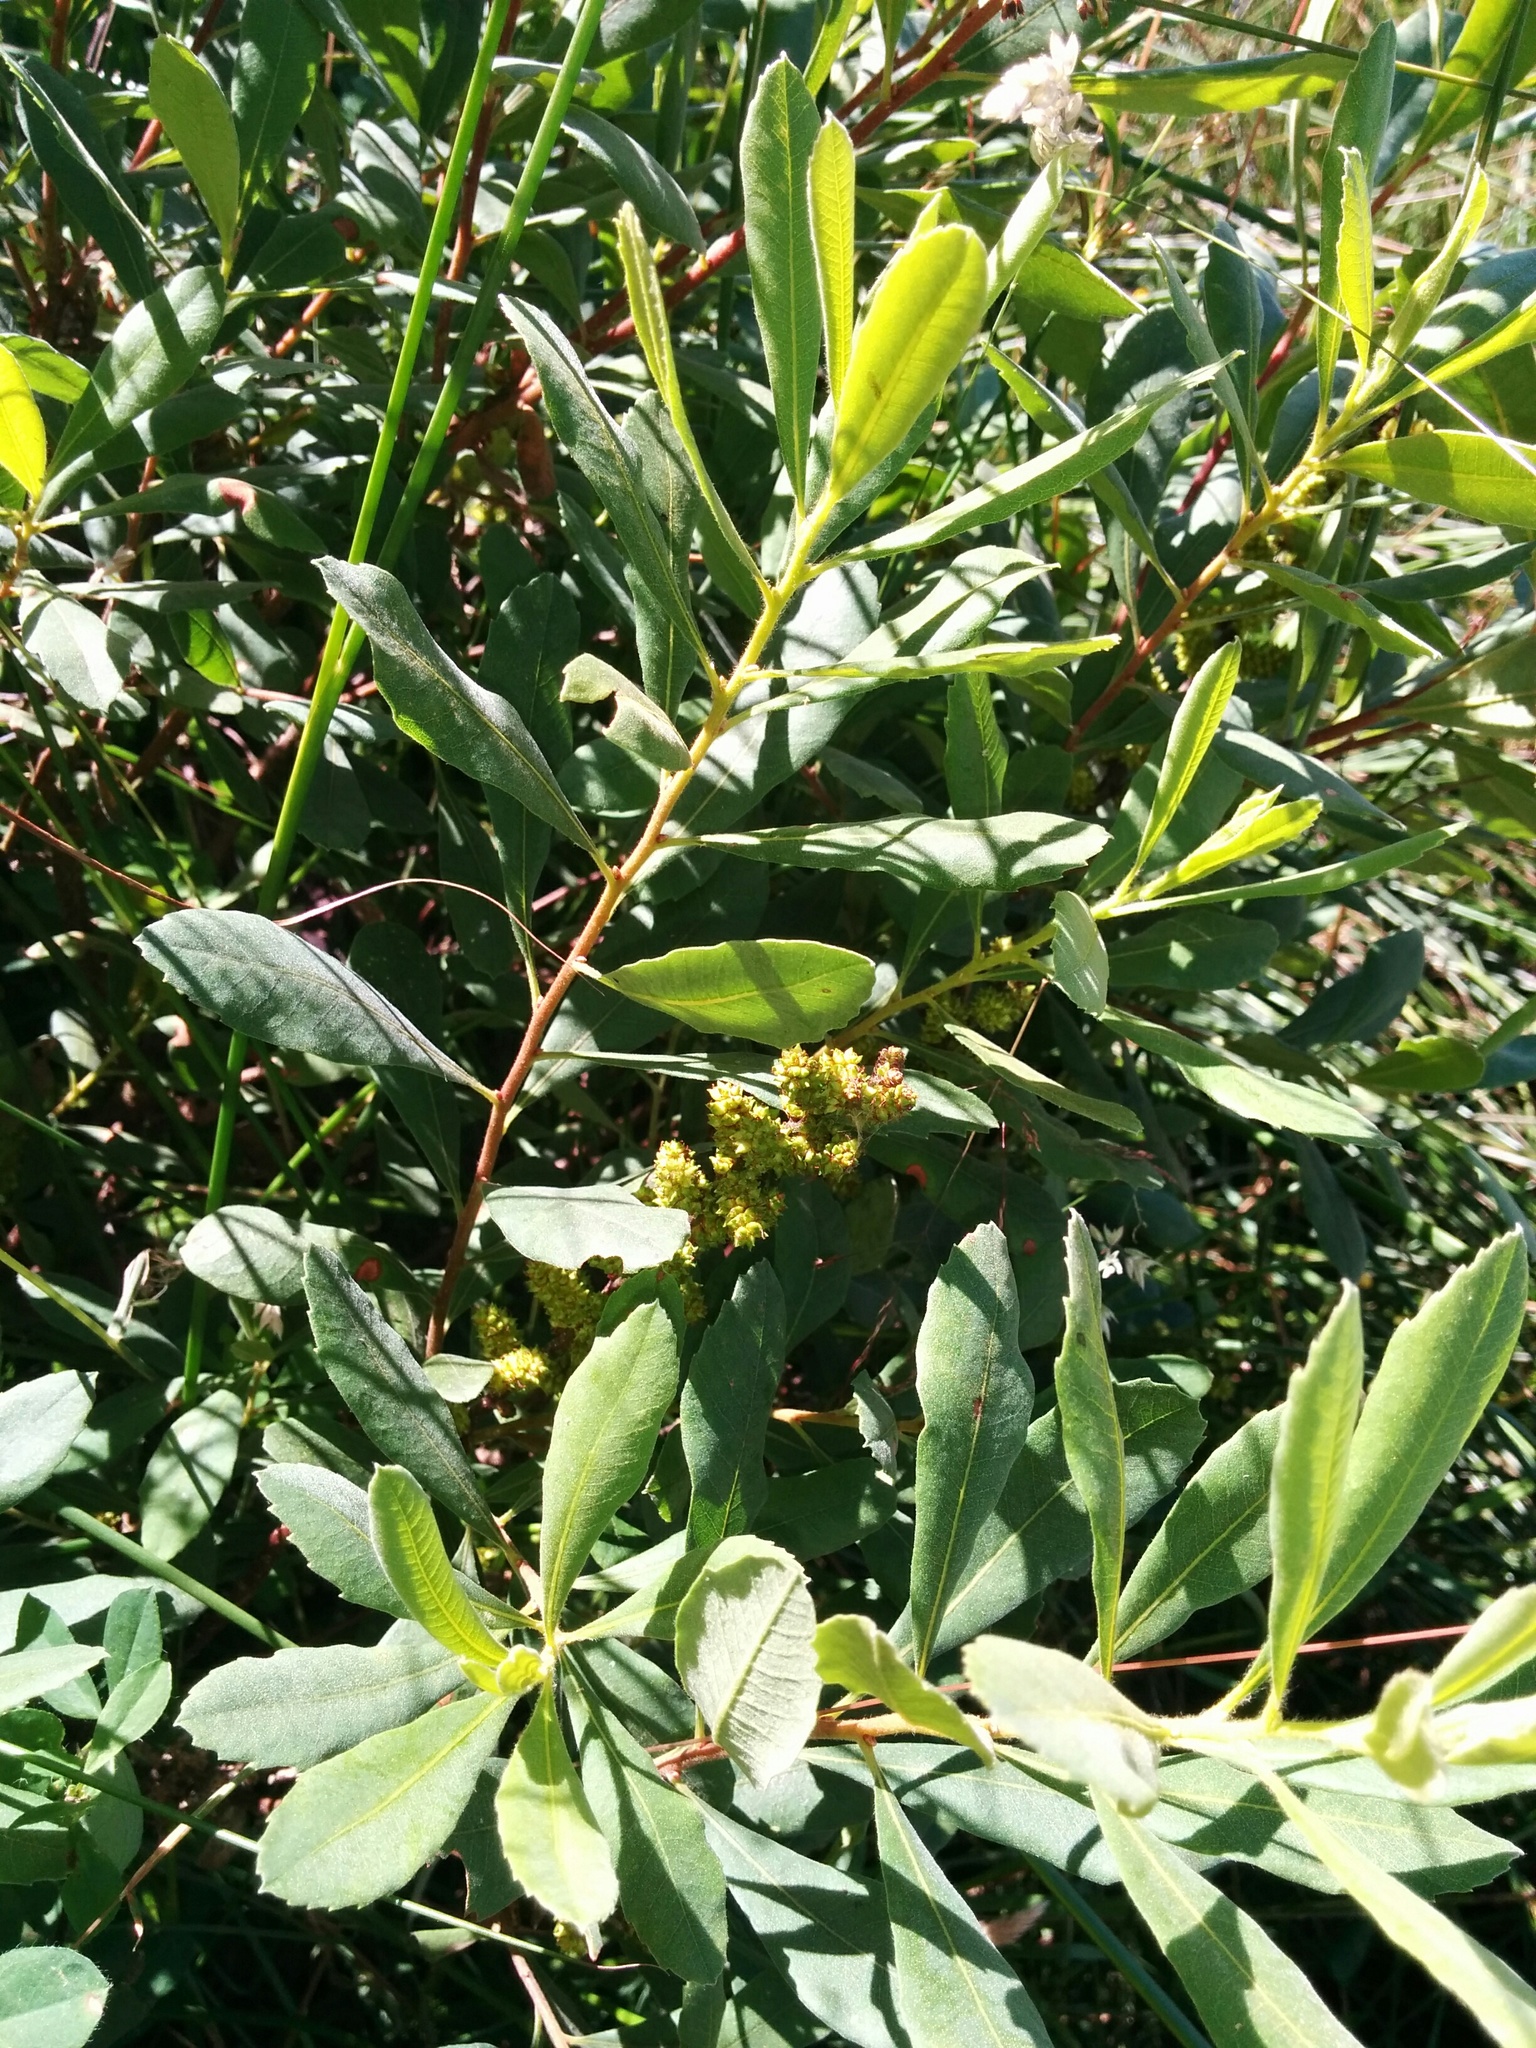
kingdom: Plantae
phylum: Tracheophyta
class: Magnoliopsida
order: Fagales
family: Myricaceae
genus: Myrica
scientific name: Myrica gale
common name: Sweet gale
